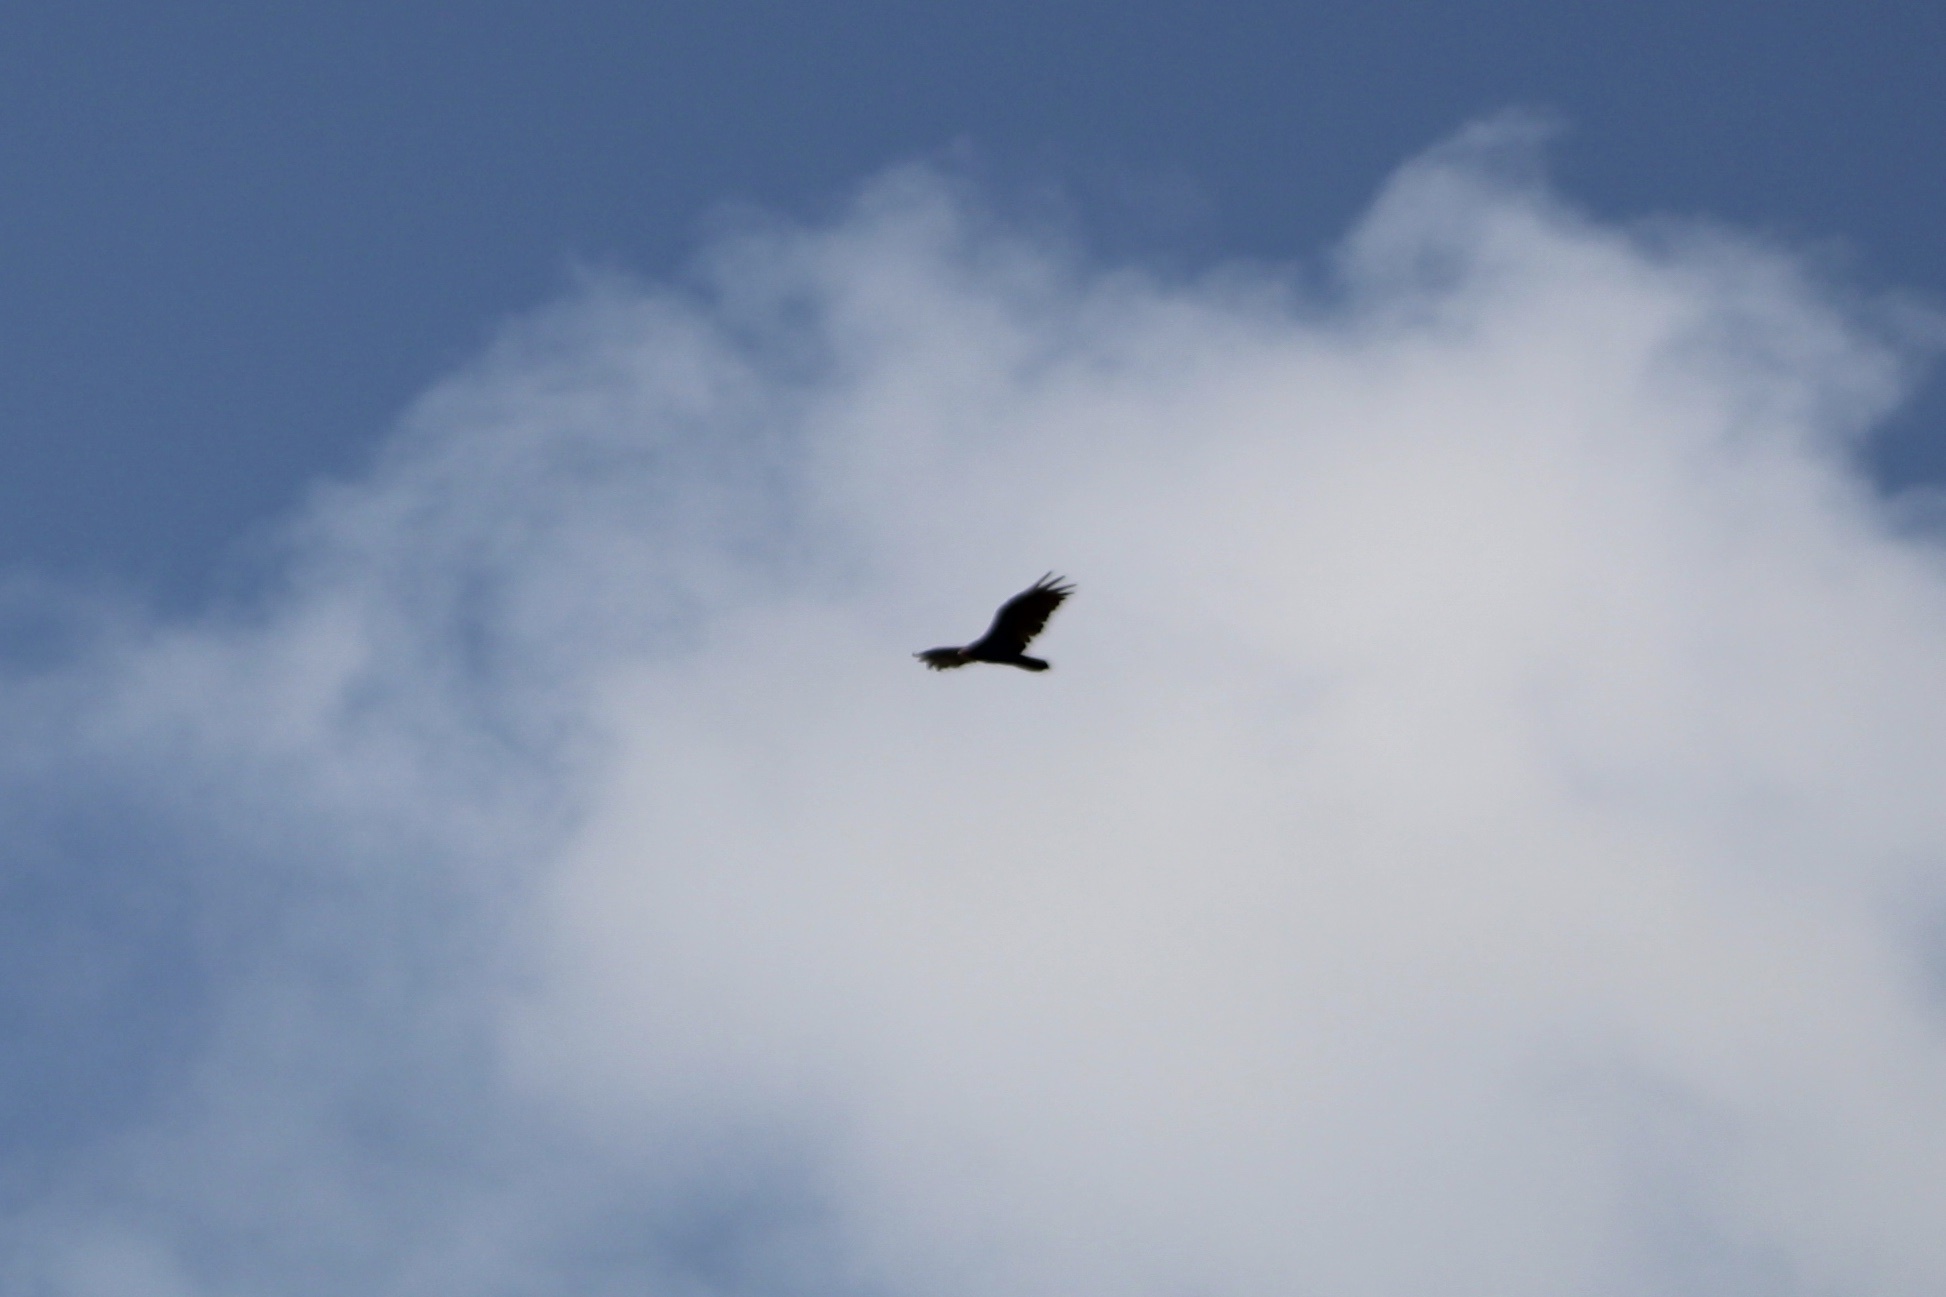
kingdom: Animalia
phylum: Chordata
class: Aves
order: Accipitriformes
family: Cathartidae
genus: Cathartes
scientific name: Cathartes aura
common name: Turkey vulture
